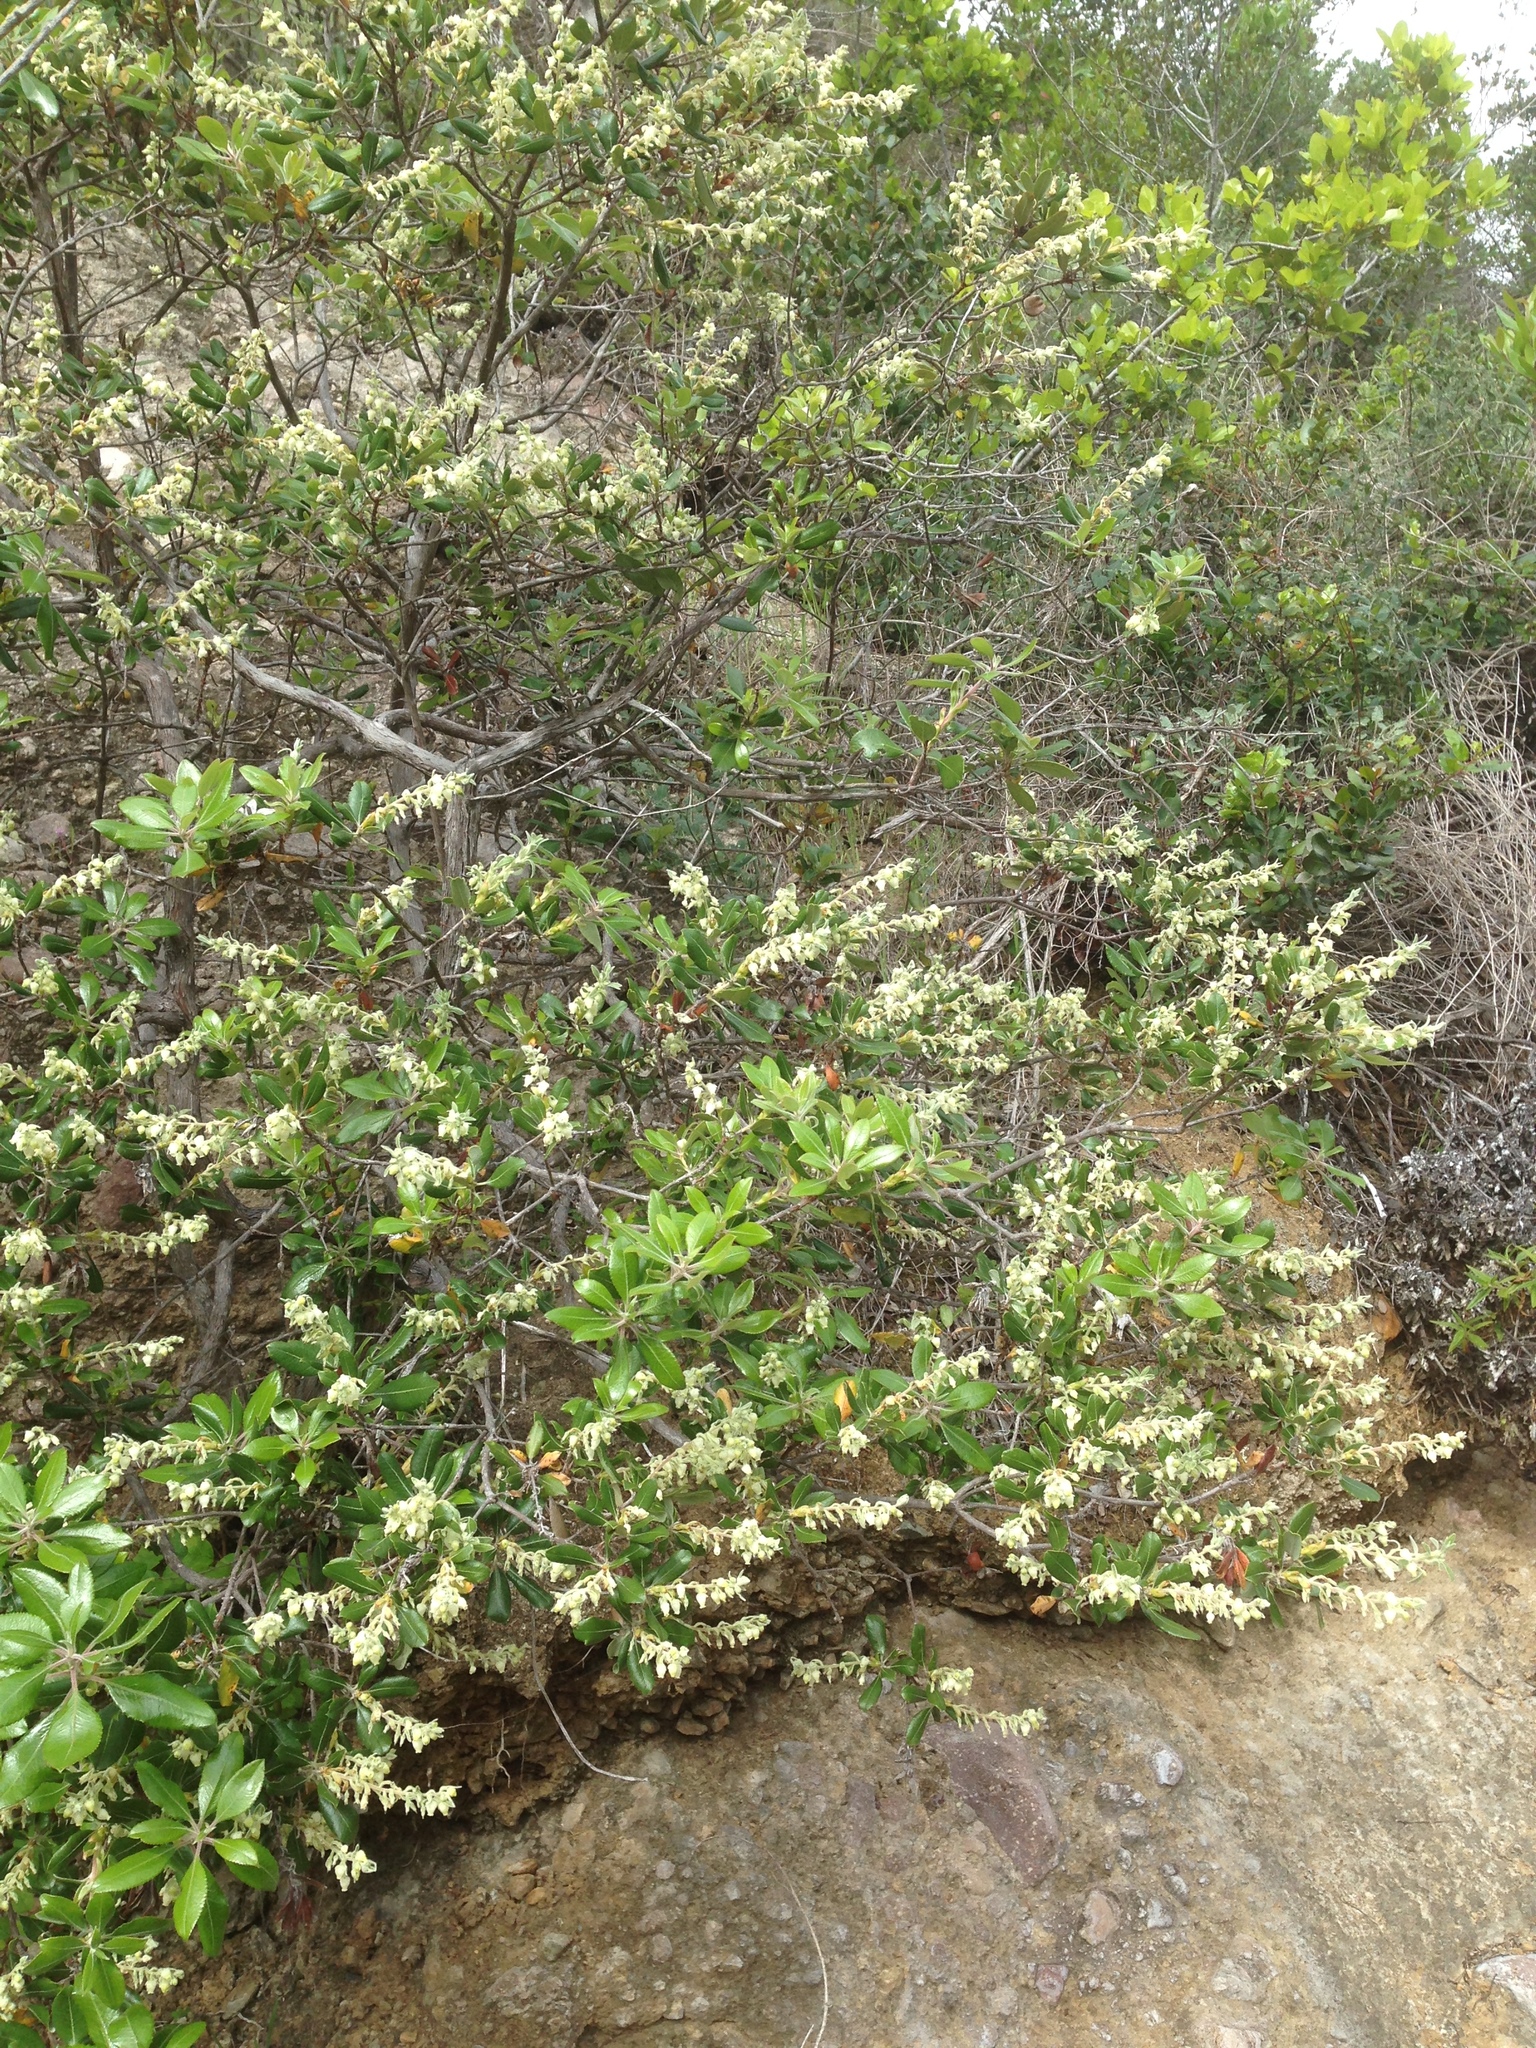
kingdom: Plantae
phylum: Tracheophyta
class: Magnoliopsida
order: Ericales
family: Ericaceae
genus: Comarostaphylis
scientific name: Comarostaphylis diversifolia
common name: Summer-holly
